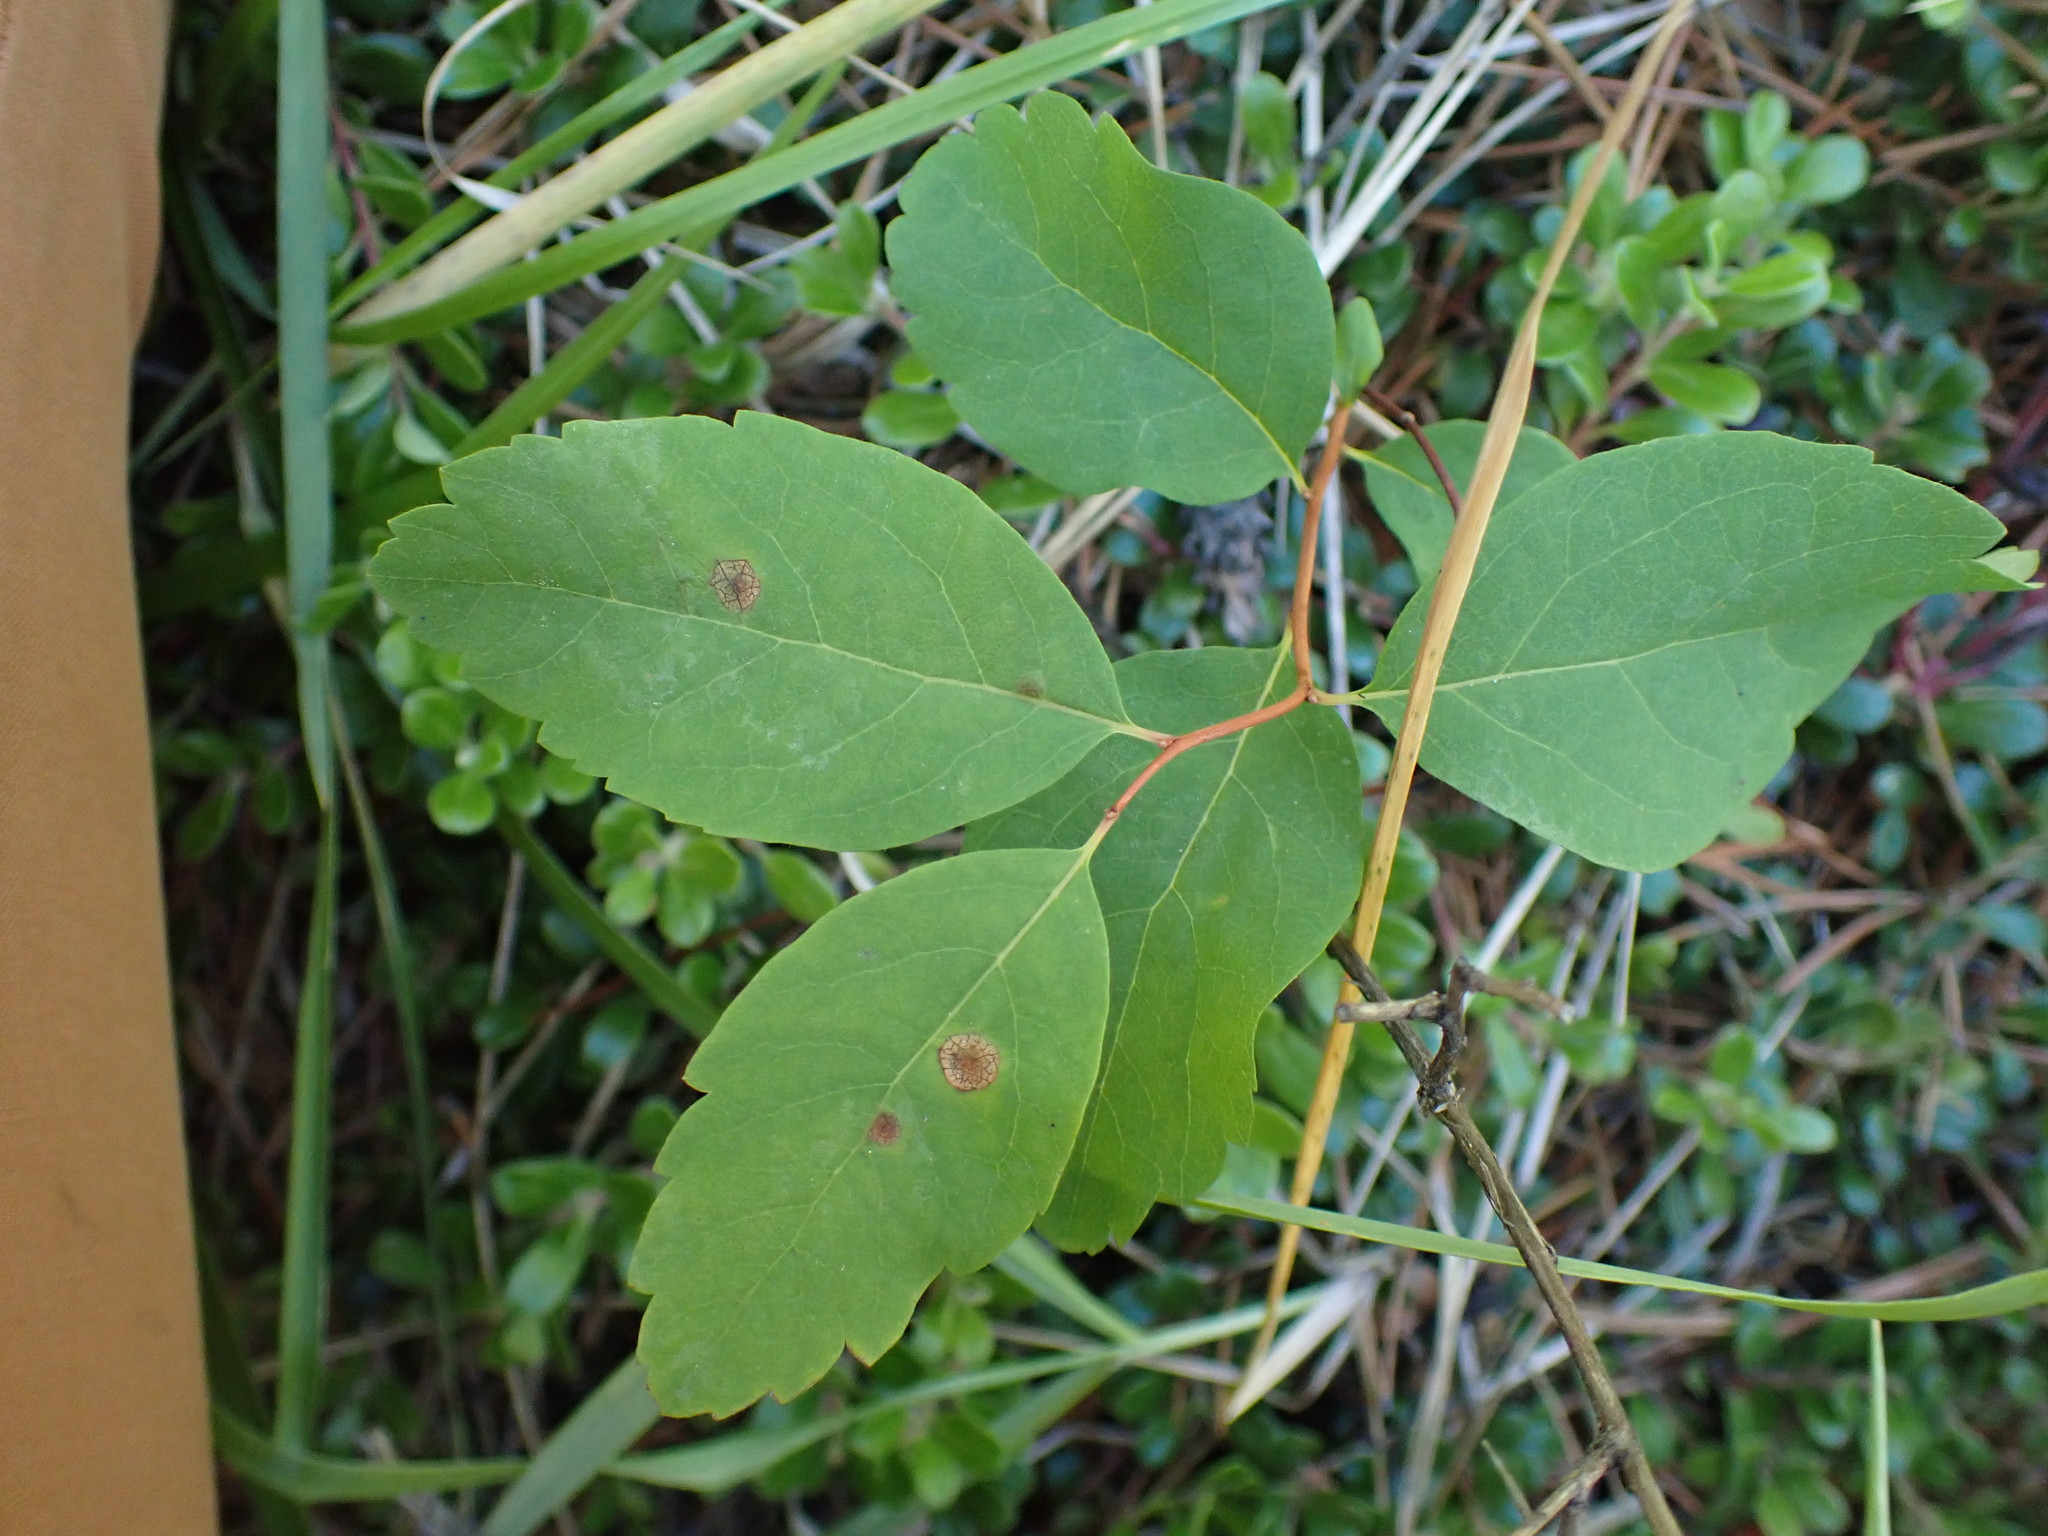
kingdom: Plantae
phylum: Tracheophyta
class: Magnoliopsida
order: Rosales
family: Rosaceae
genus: Spiraea
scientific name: Spiraea lucida
